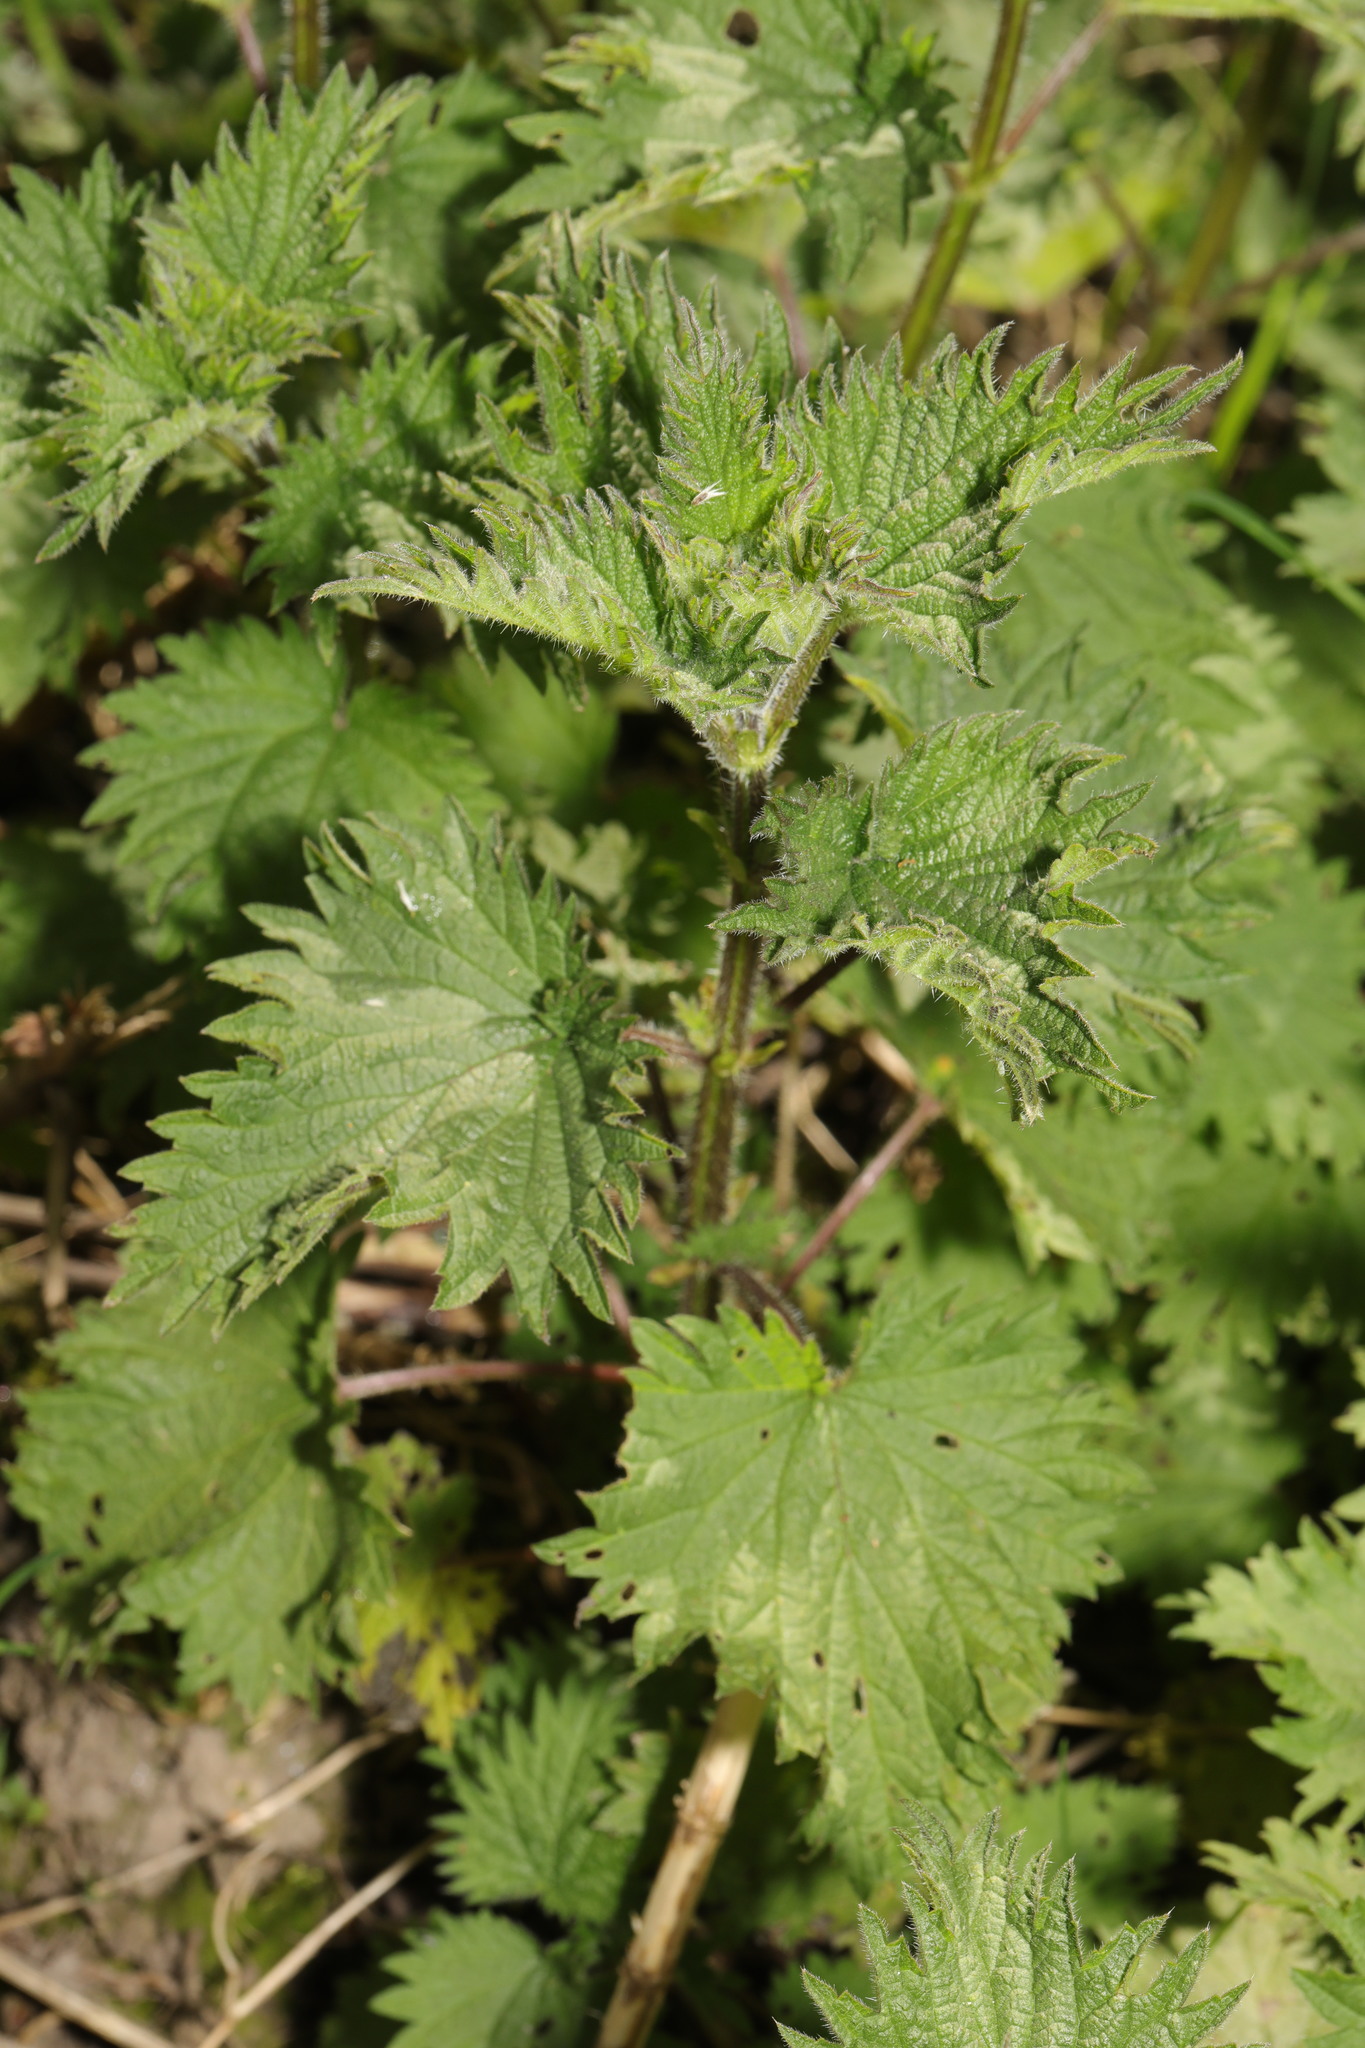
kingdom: Plantae
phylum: Tracheophyta
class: Magnoliopsida
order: Rosales
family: Urticaceae
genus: Urtica
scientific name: Urtica dioica
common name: Common nettle
